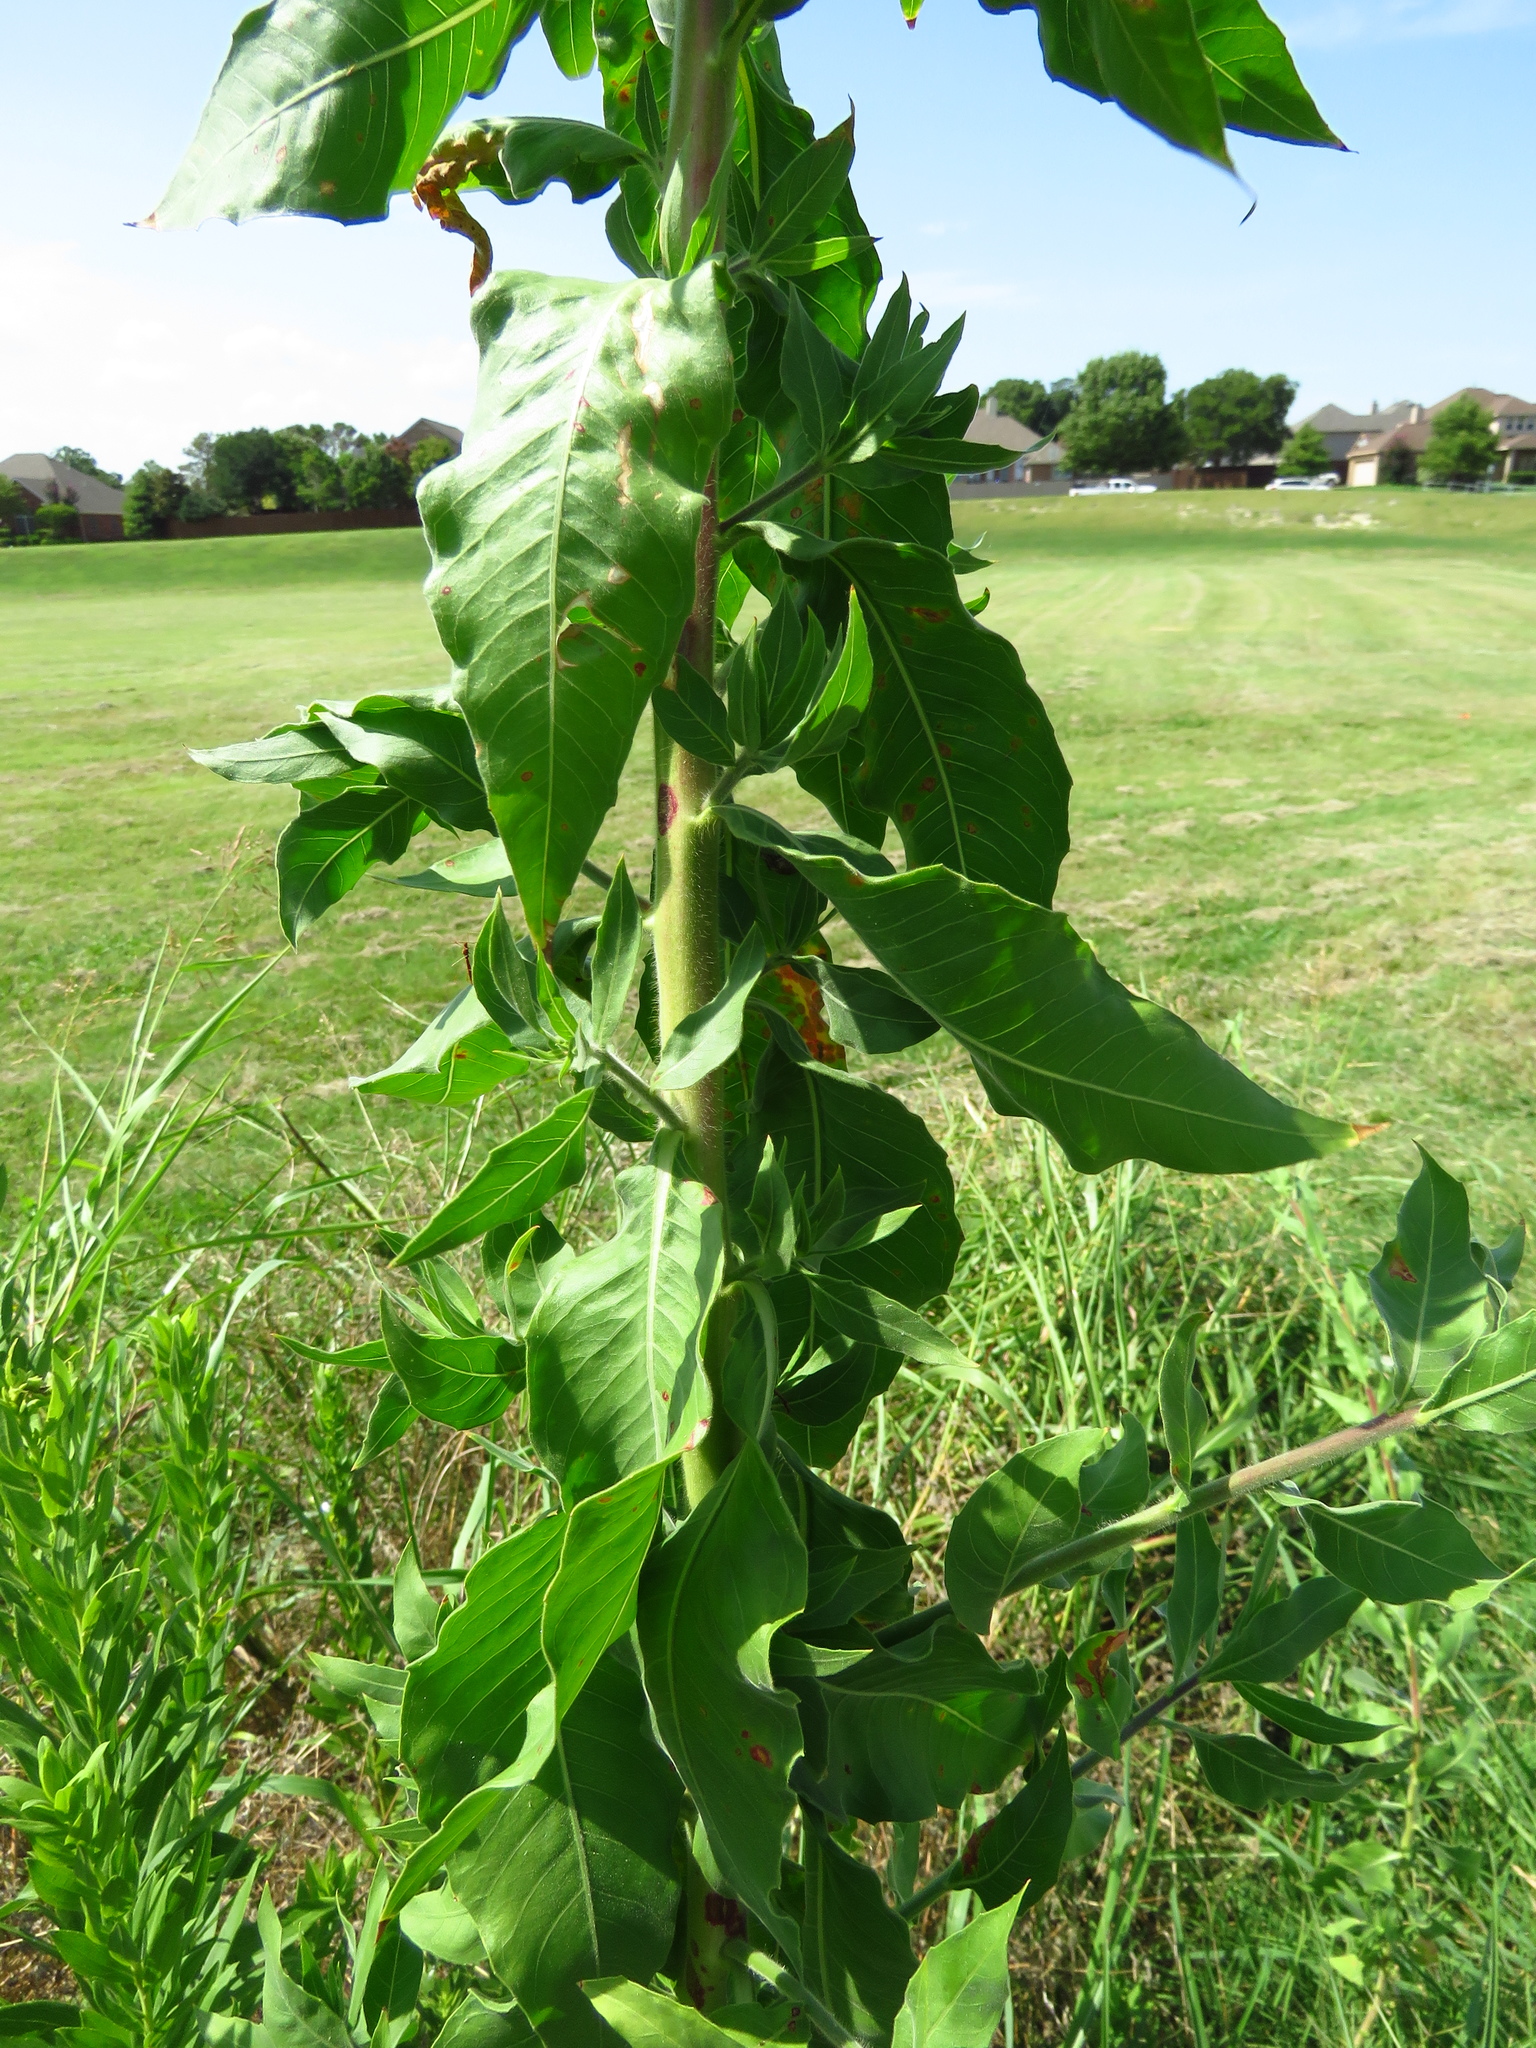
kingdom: Plantae
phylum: Tracheophyta
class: Magnoliopsida
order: Myrtales
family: Onagraceae
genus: Oenothera
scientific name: Oenothera curtiflora
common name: Velvetweed
